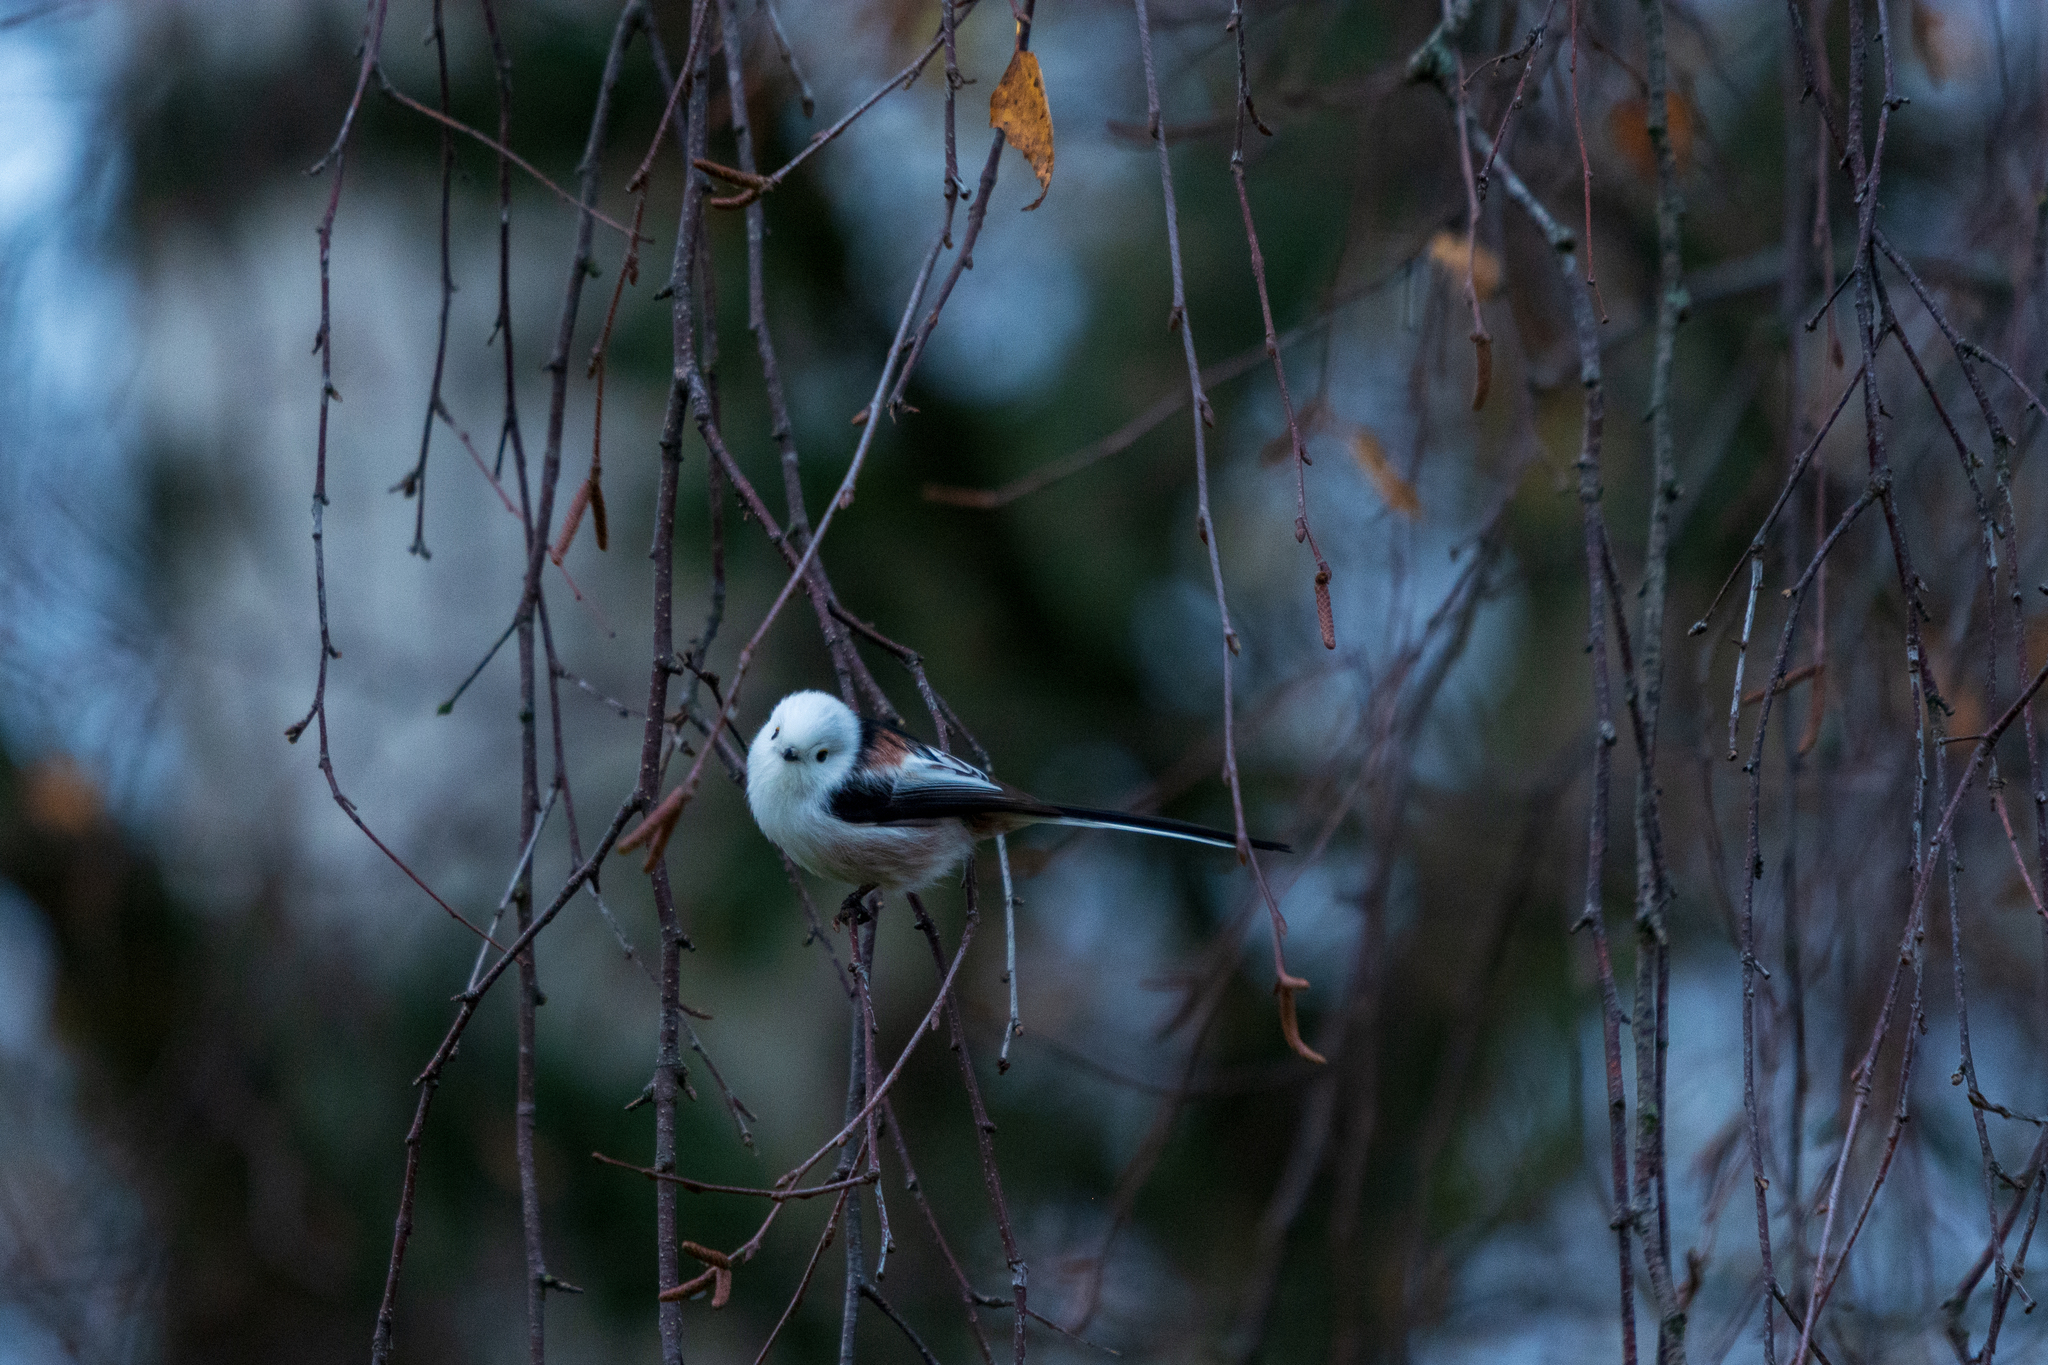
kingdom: Animalia
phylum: Chordata
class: Aves
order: Passeriformes
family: Aegithalidae
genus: Aegithalos
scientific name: Aegithalos caudatus
